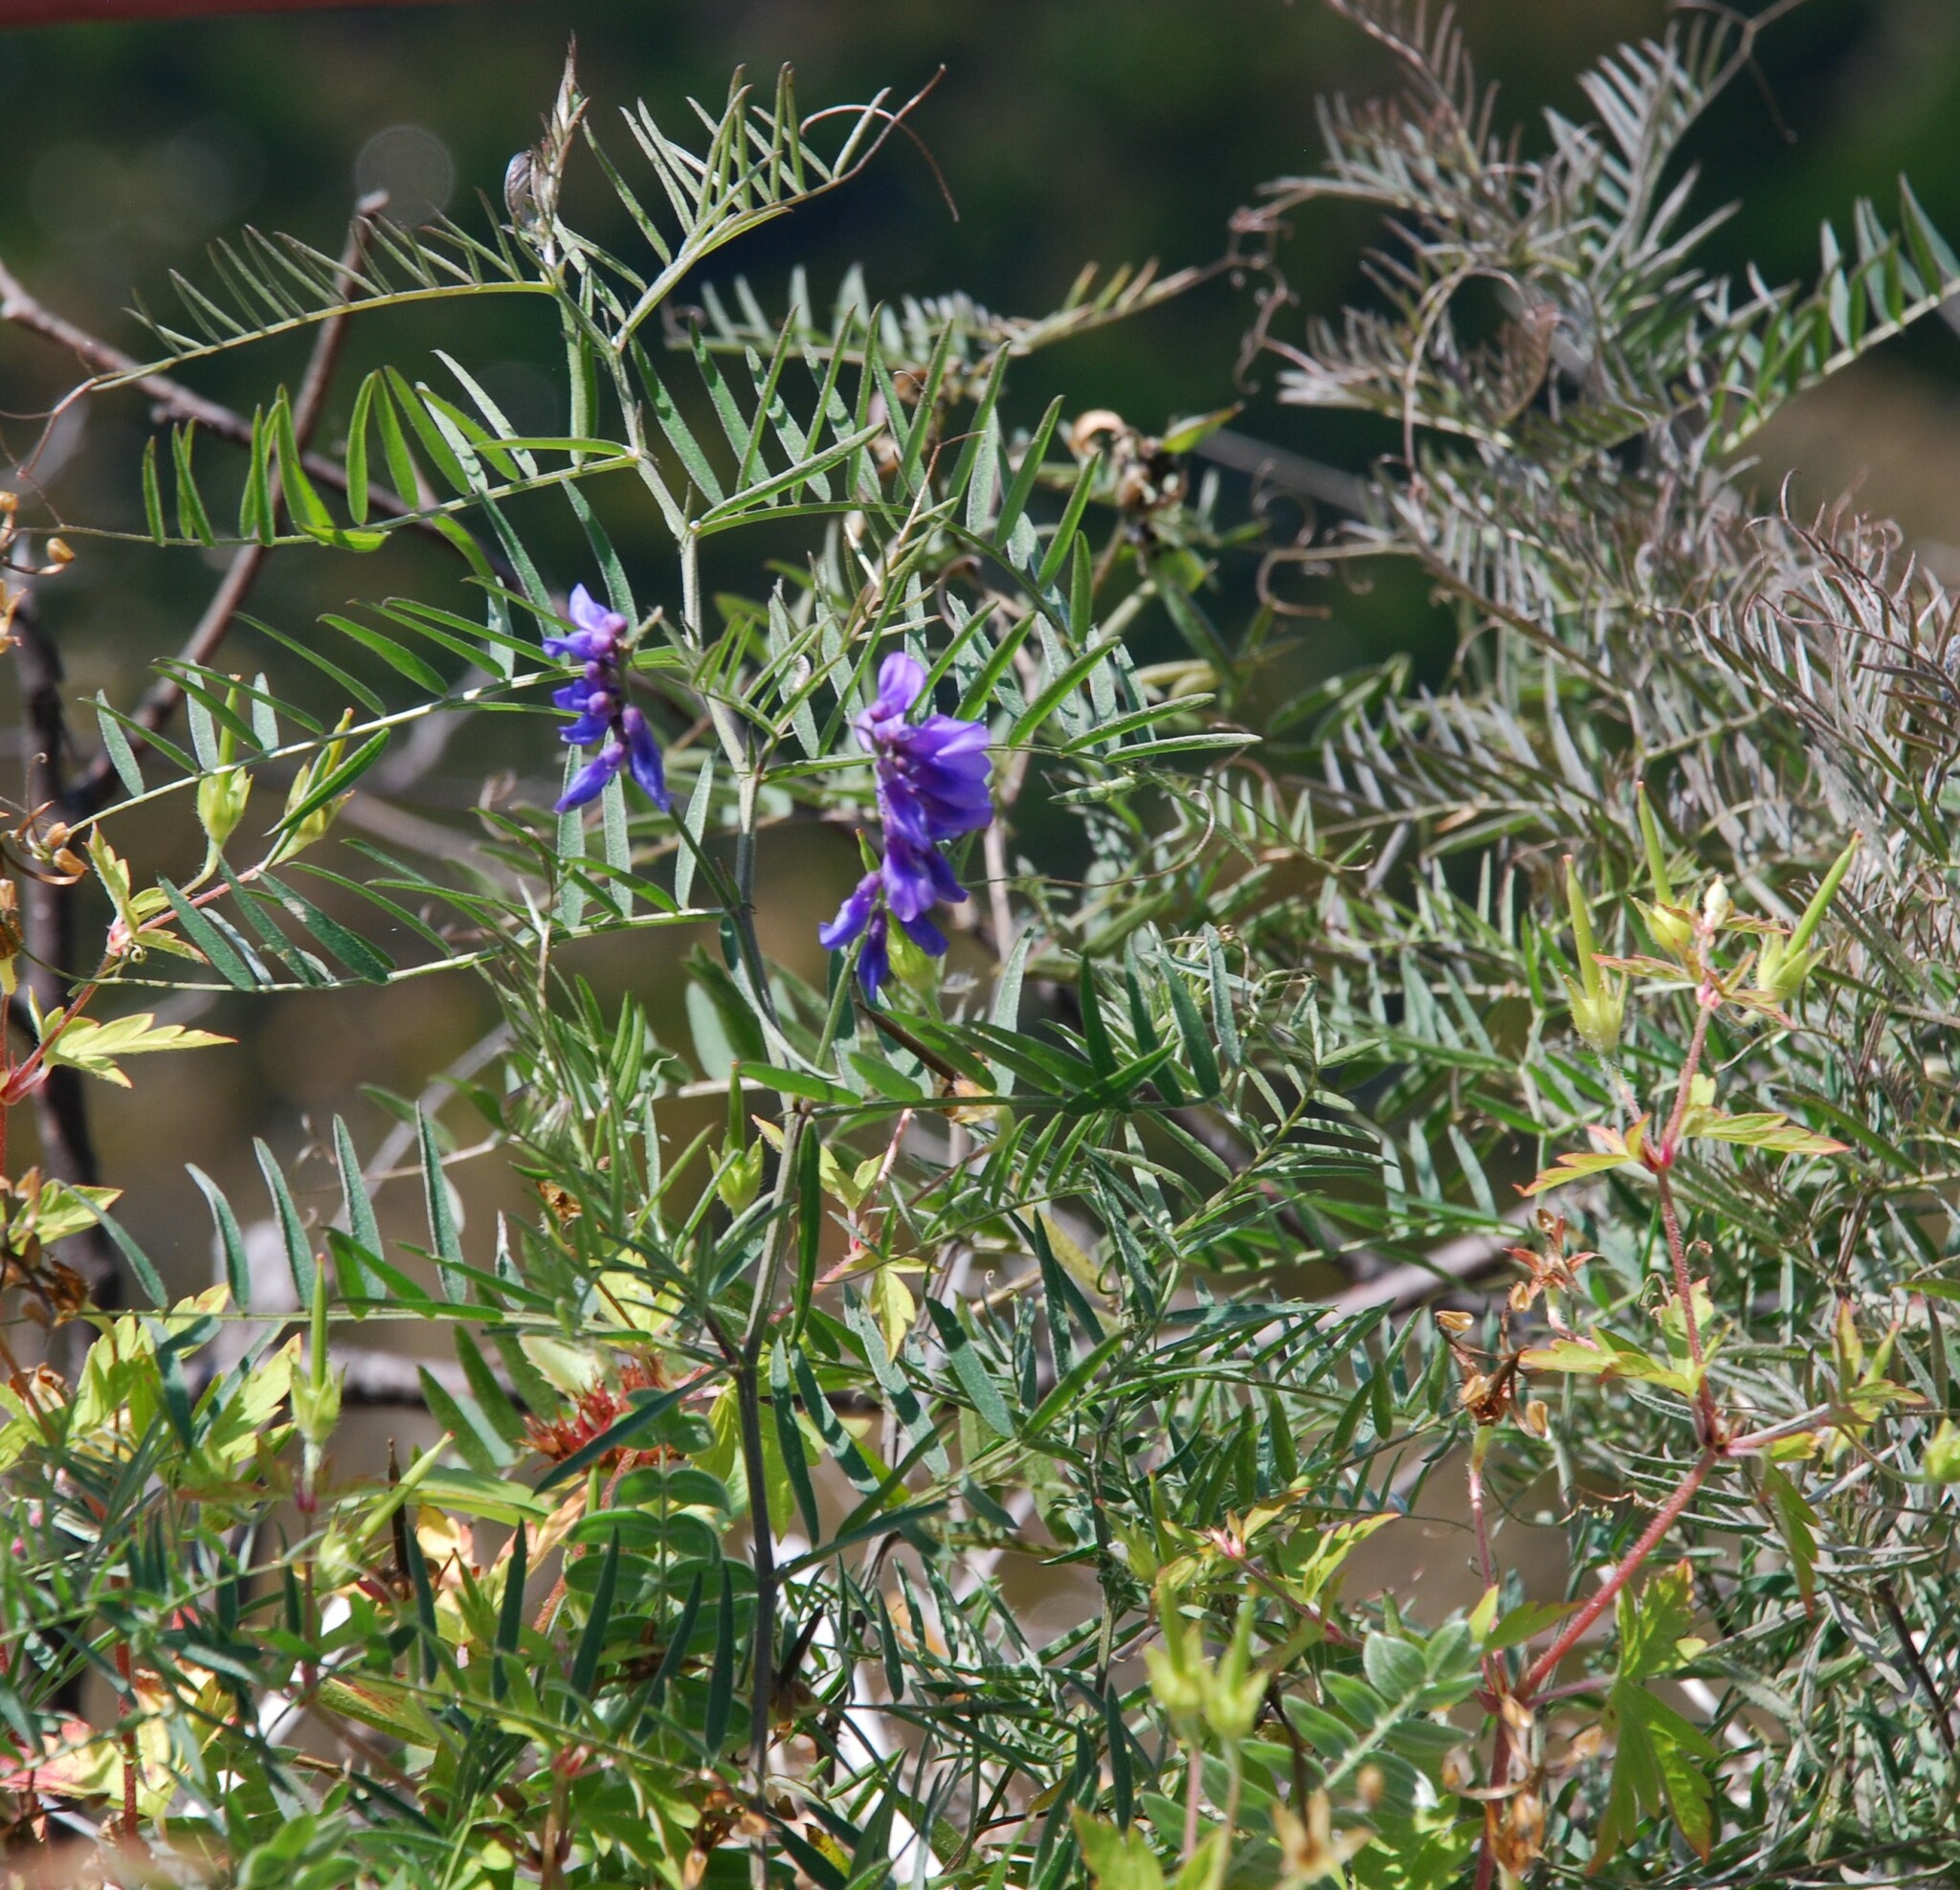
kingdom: Plantae
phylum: Tracheophyta
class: Magnoliopsida
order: Fabales
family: Fabaceae
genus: Vicia
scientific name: Vicia cracca
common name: Bird vetch
